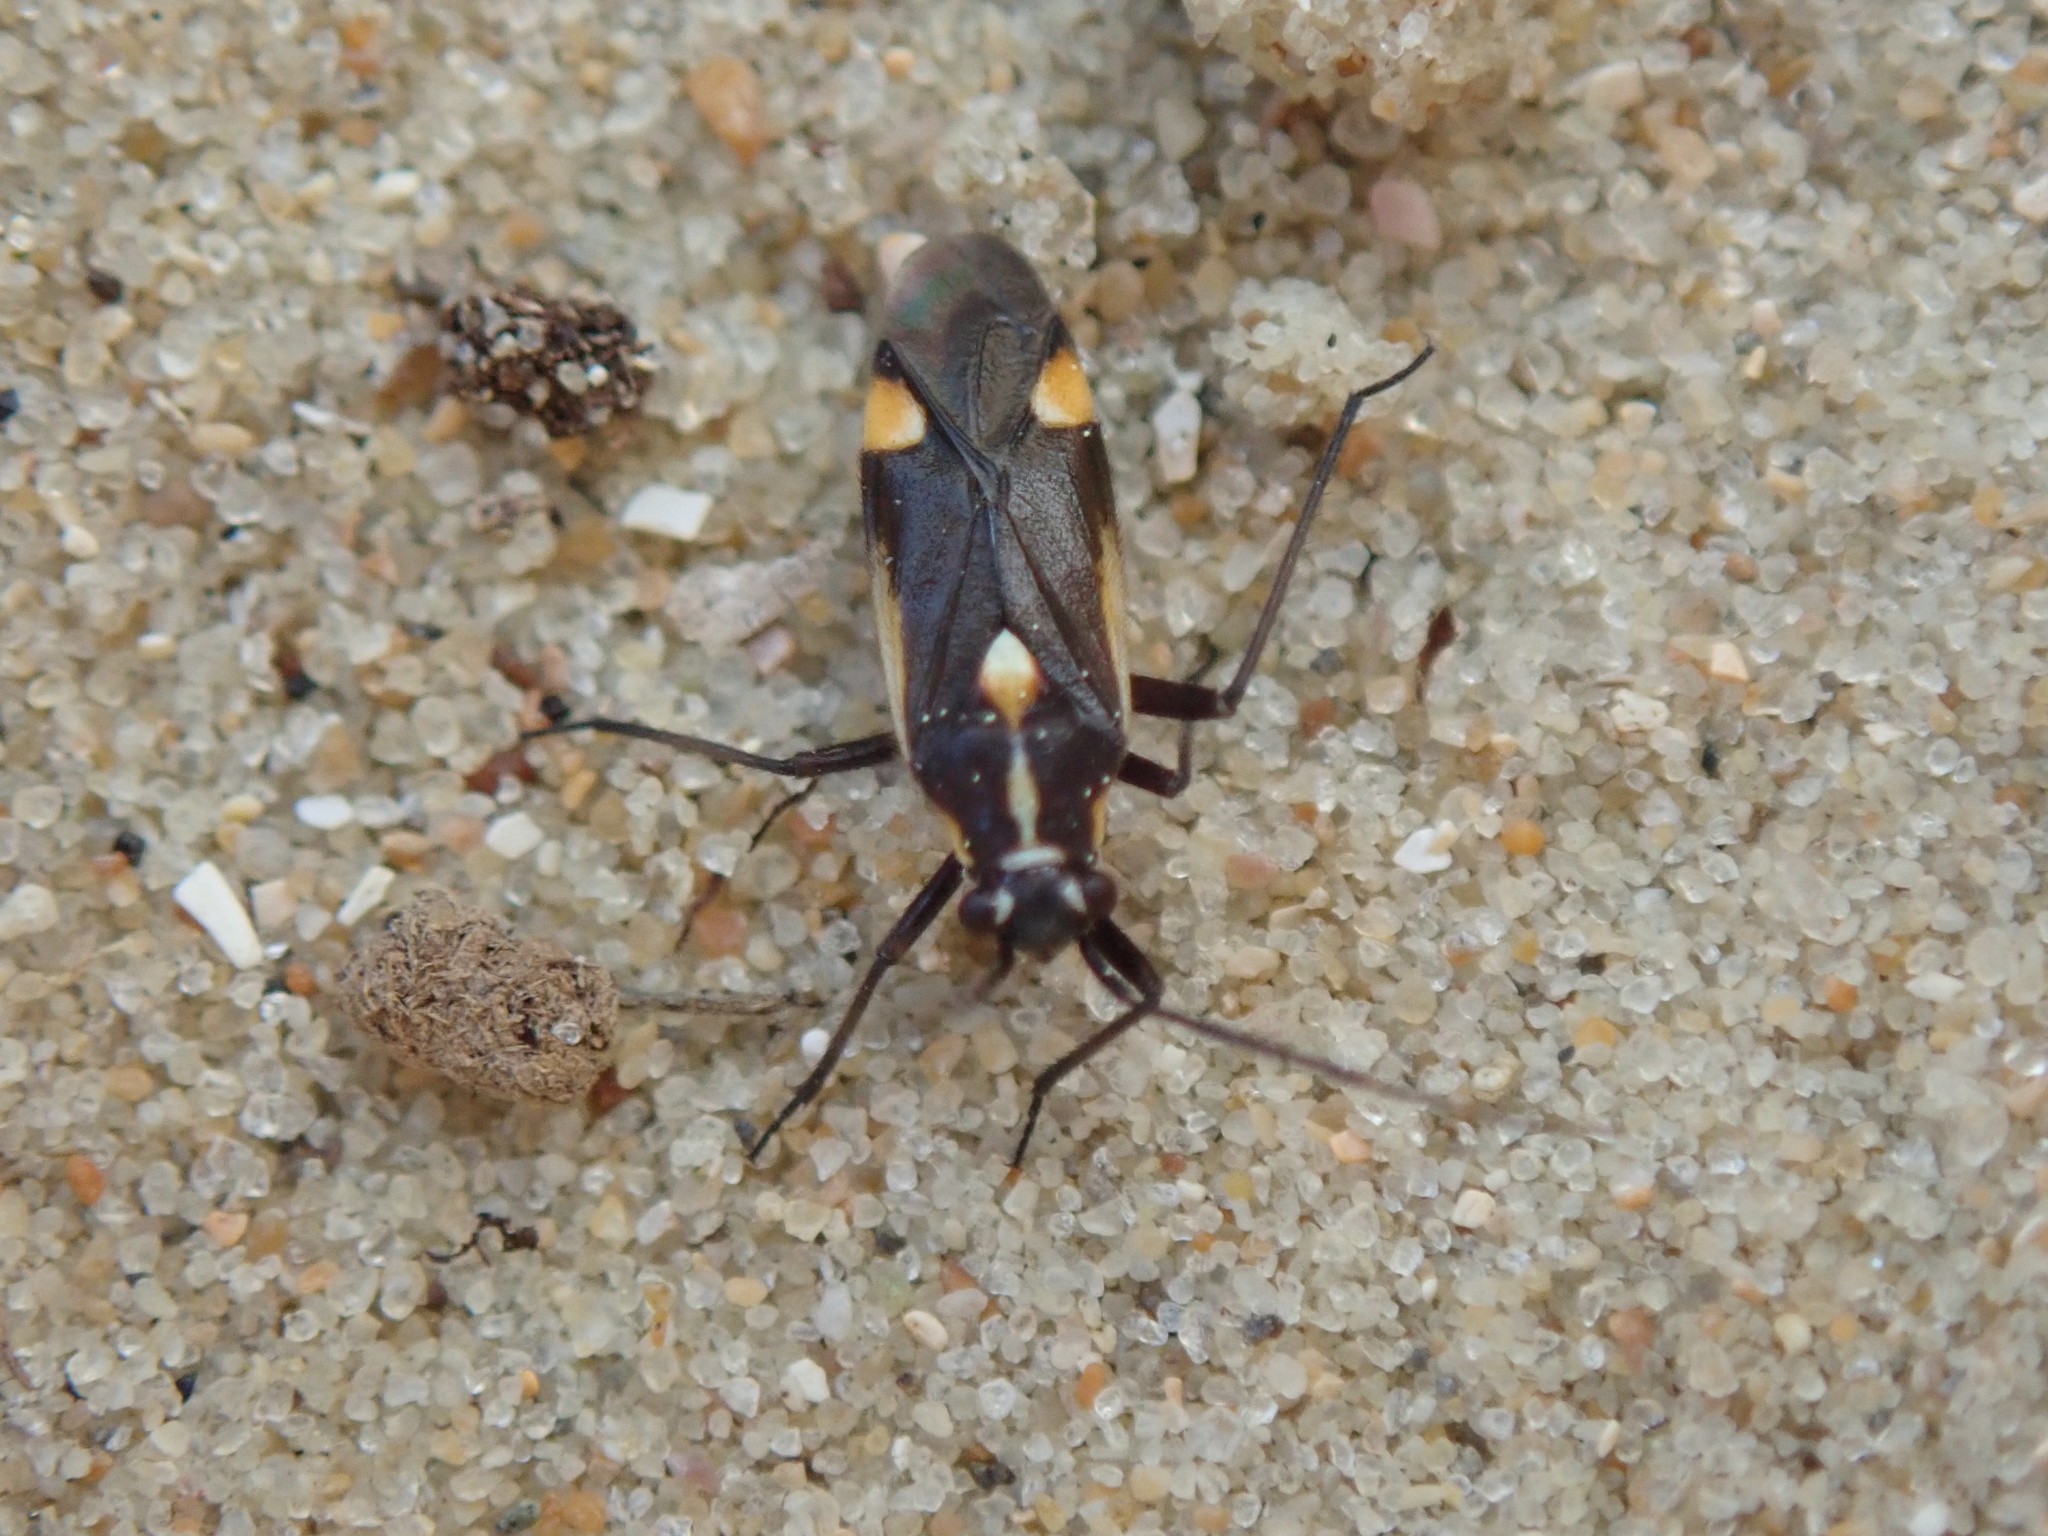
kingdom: Animalia
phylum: Arthropoda
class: Insecta
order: Hemiptera
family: Miridae
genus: Capsodes
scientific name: Capsodes sulcatus
